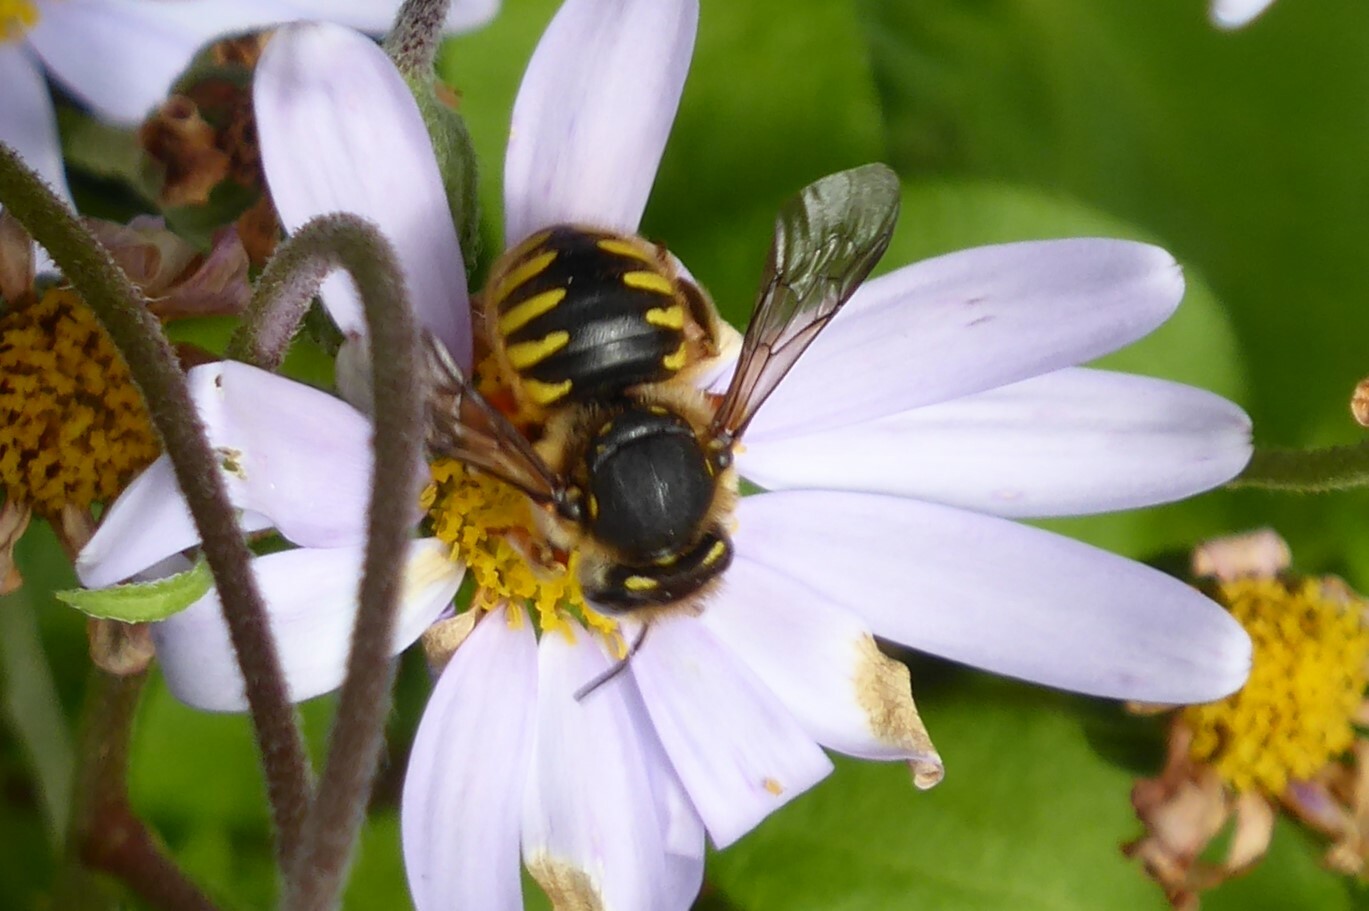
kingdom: Animalia
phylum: Arthropoda
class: Insecta
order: Hymenoptera
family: Megachilidae
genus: Anthidium
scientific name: Anthidium manicatum
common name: Wool carder bee
